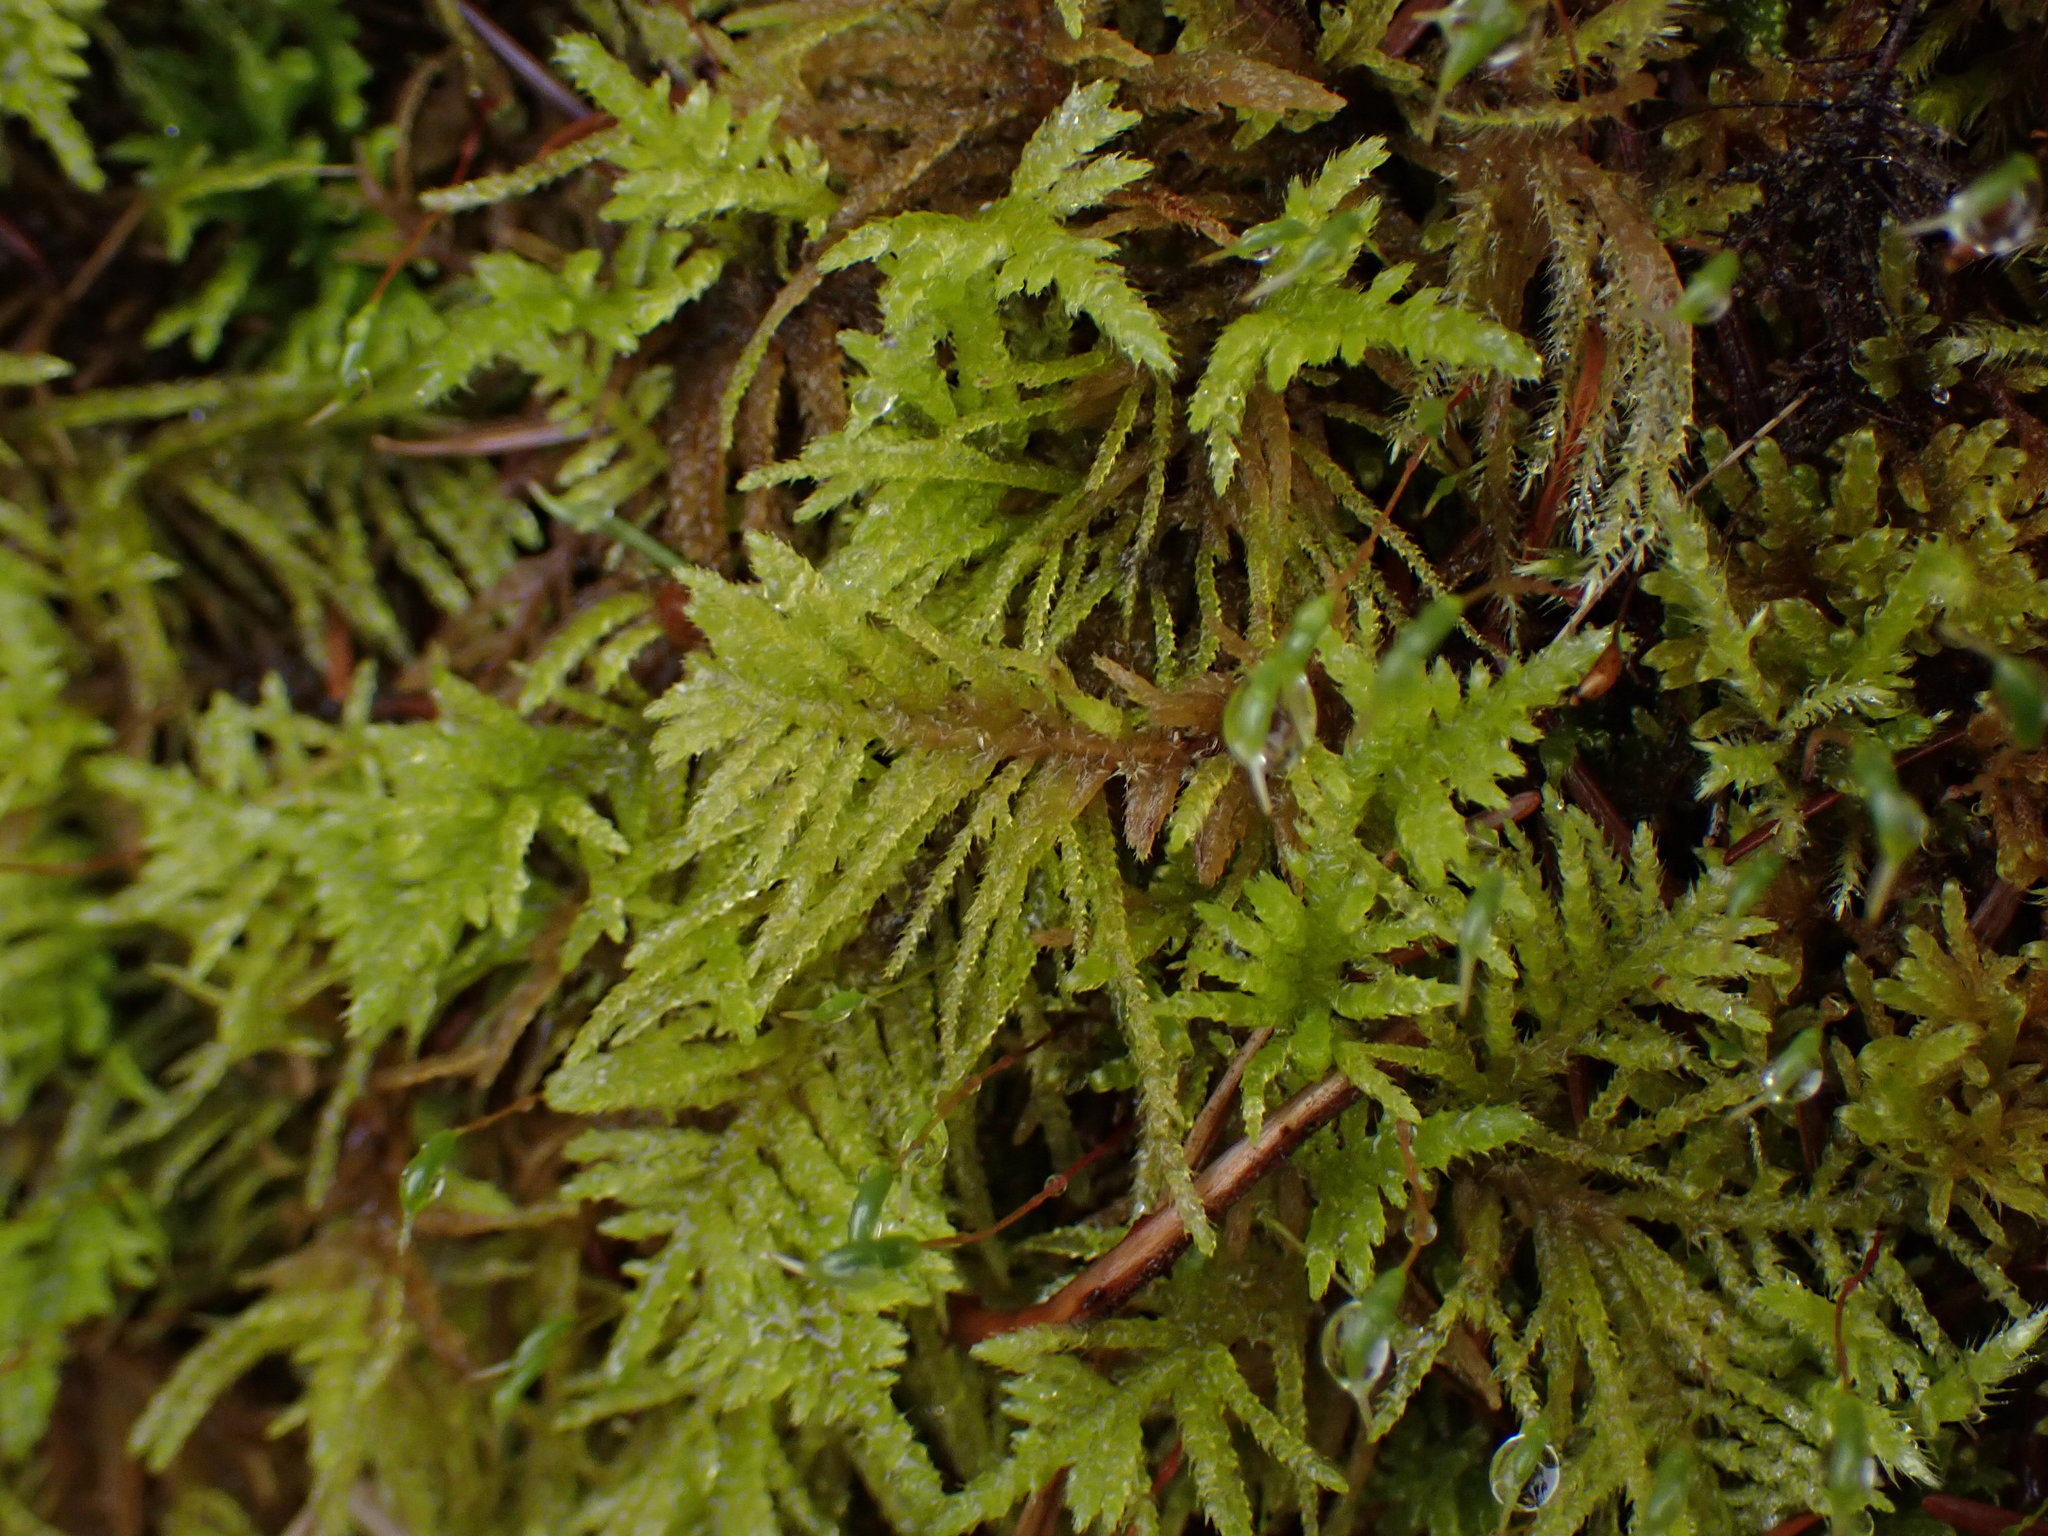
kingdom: Plantae
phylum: Bryophyta
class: Bryopsida
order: Hypnales
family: Brachytheciaceae
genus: Kindbergia
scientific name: Kindbergia oregana
